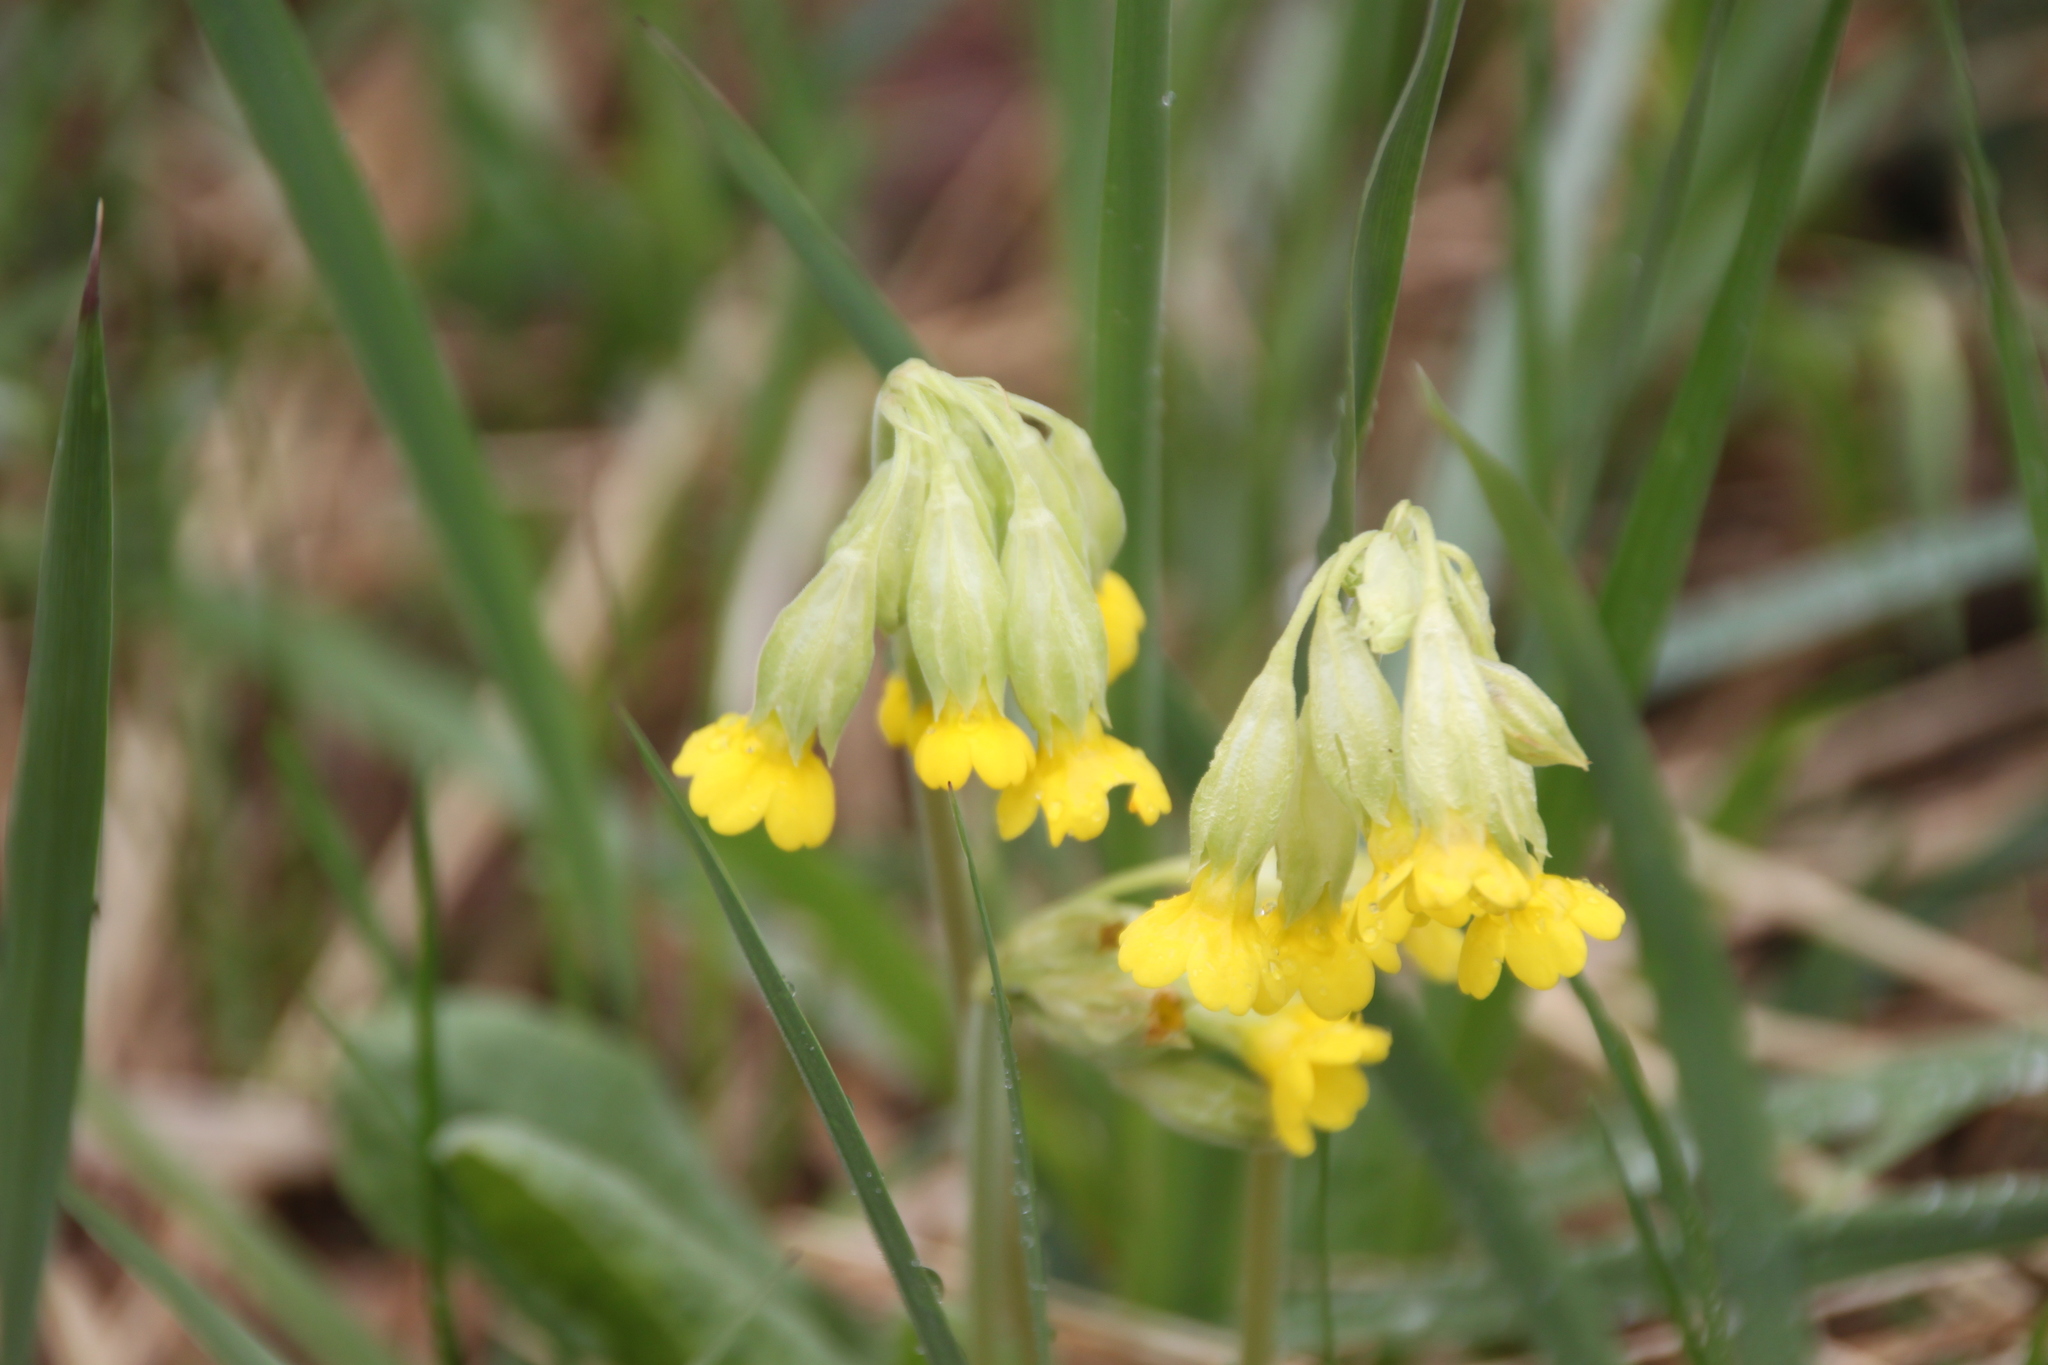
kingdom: Plantae
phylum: Tracheophyta
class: Magnoliopsida
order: Ericales
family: Primulaceae
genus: Primula
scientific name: Primula veris
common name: Cowslip
